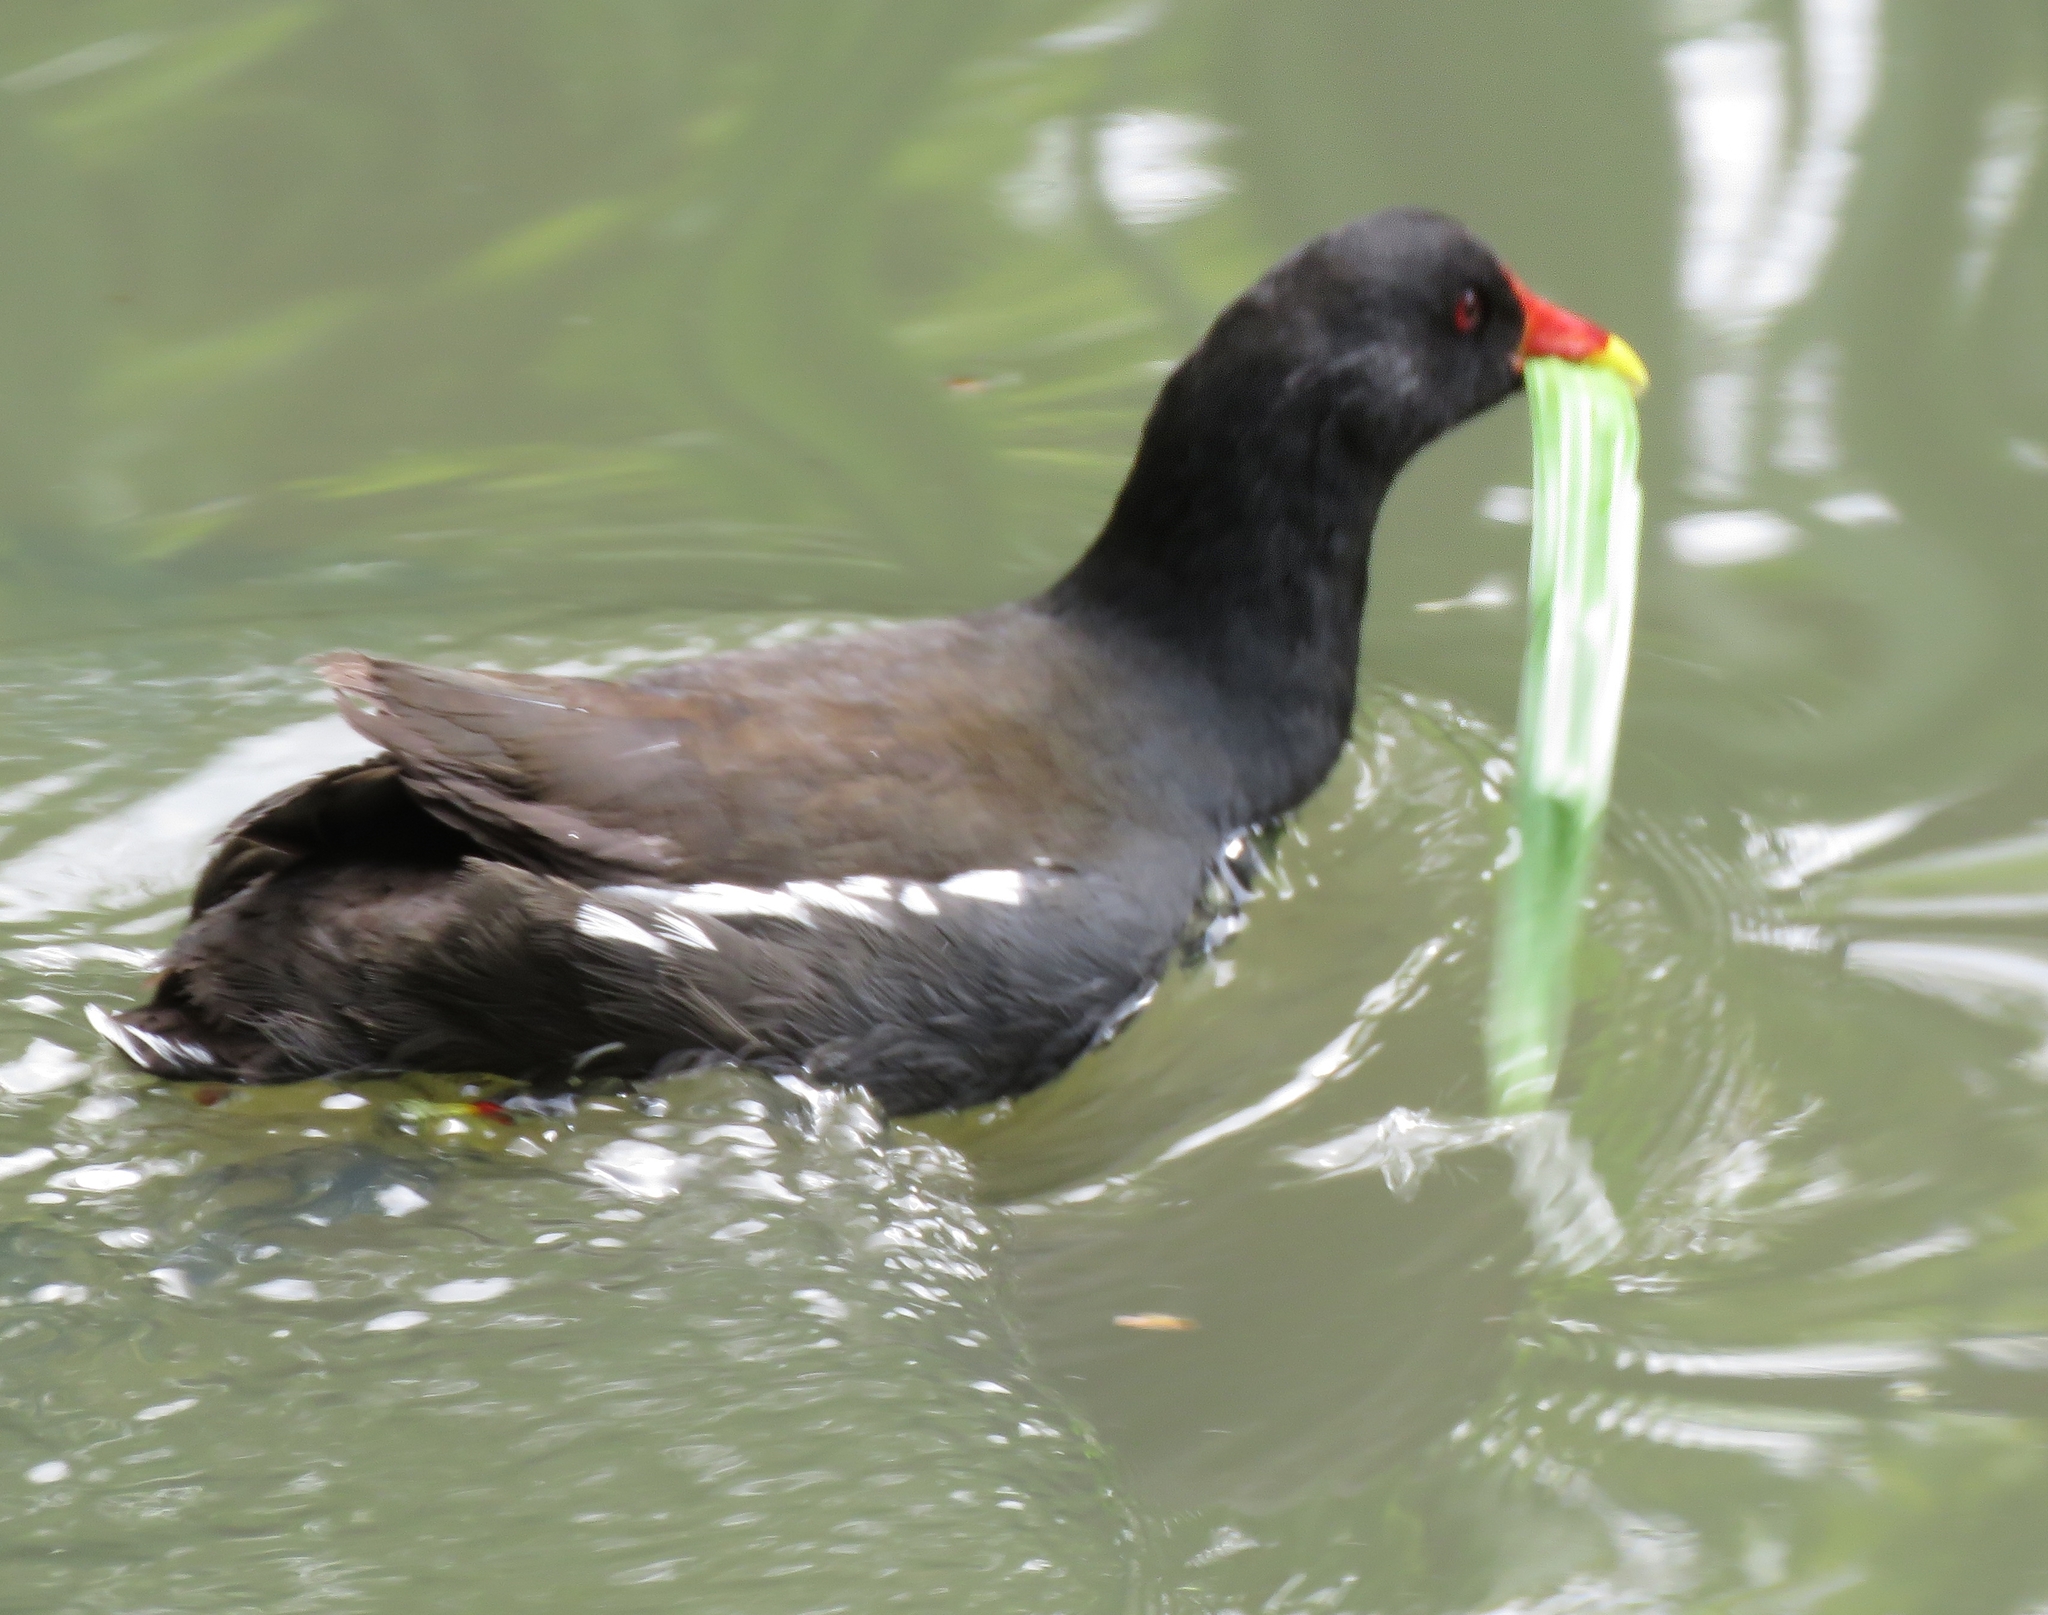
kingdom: Animalia
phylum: Chordata
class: Aves
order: Gruiformes
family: Rallidae
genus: Gallinula
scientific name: Gallinula chloropus
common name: Common moorhen
